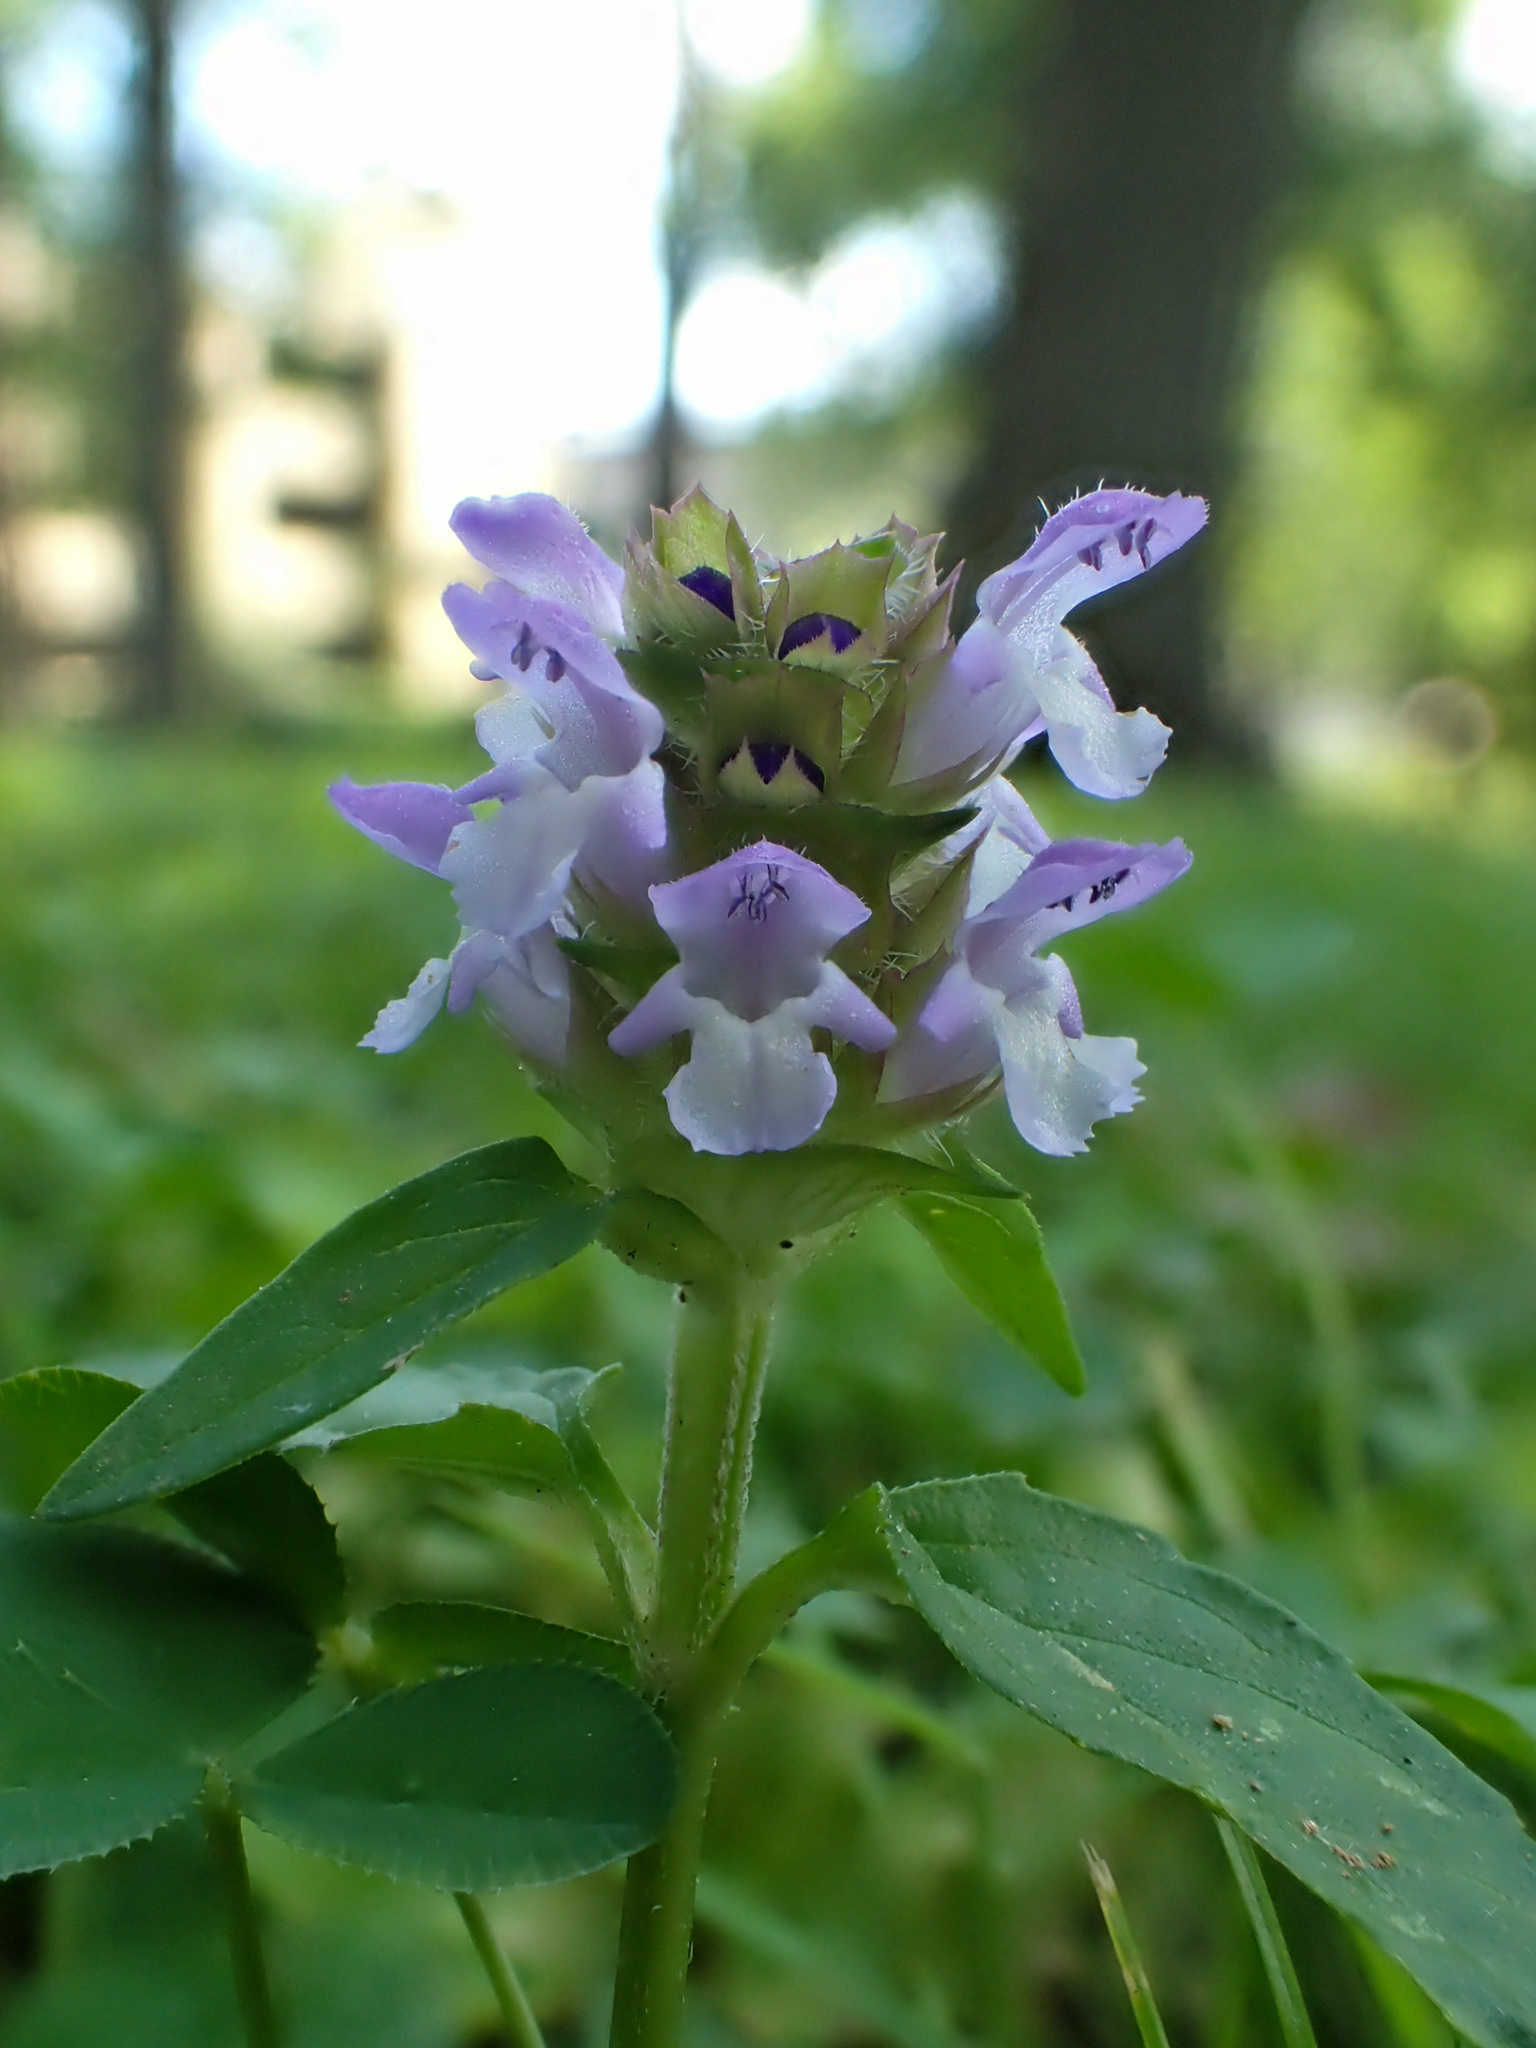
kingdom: Plantae
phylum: Tracheophyta
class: Magnoliopsida
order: Lamiales
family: Lamiaceae
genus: Prunella
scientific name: Prunella vulgaris
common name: Heal-all
